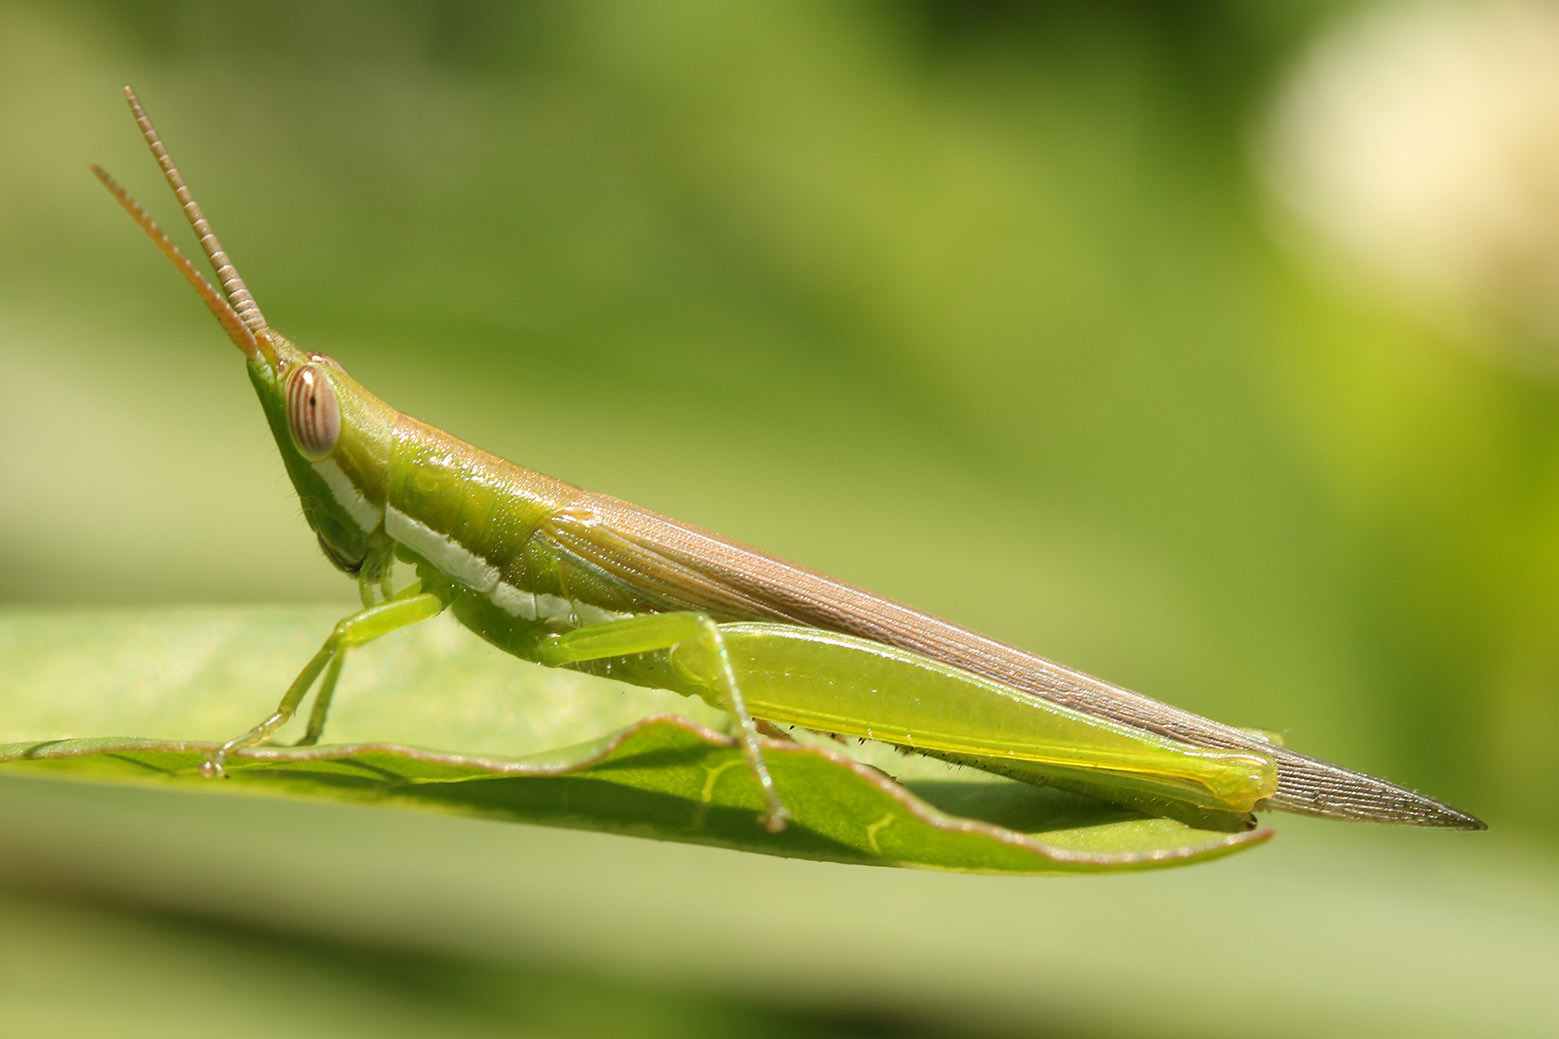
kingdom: Animalia
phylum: Arthropoda
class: Insecta
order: Orthoptera
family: Acrididae
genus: Tucayaca
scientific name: Tucayaca gracilis
